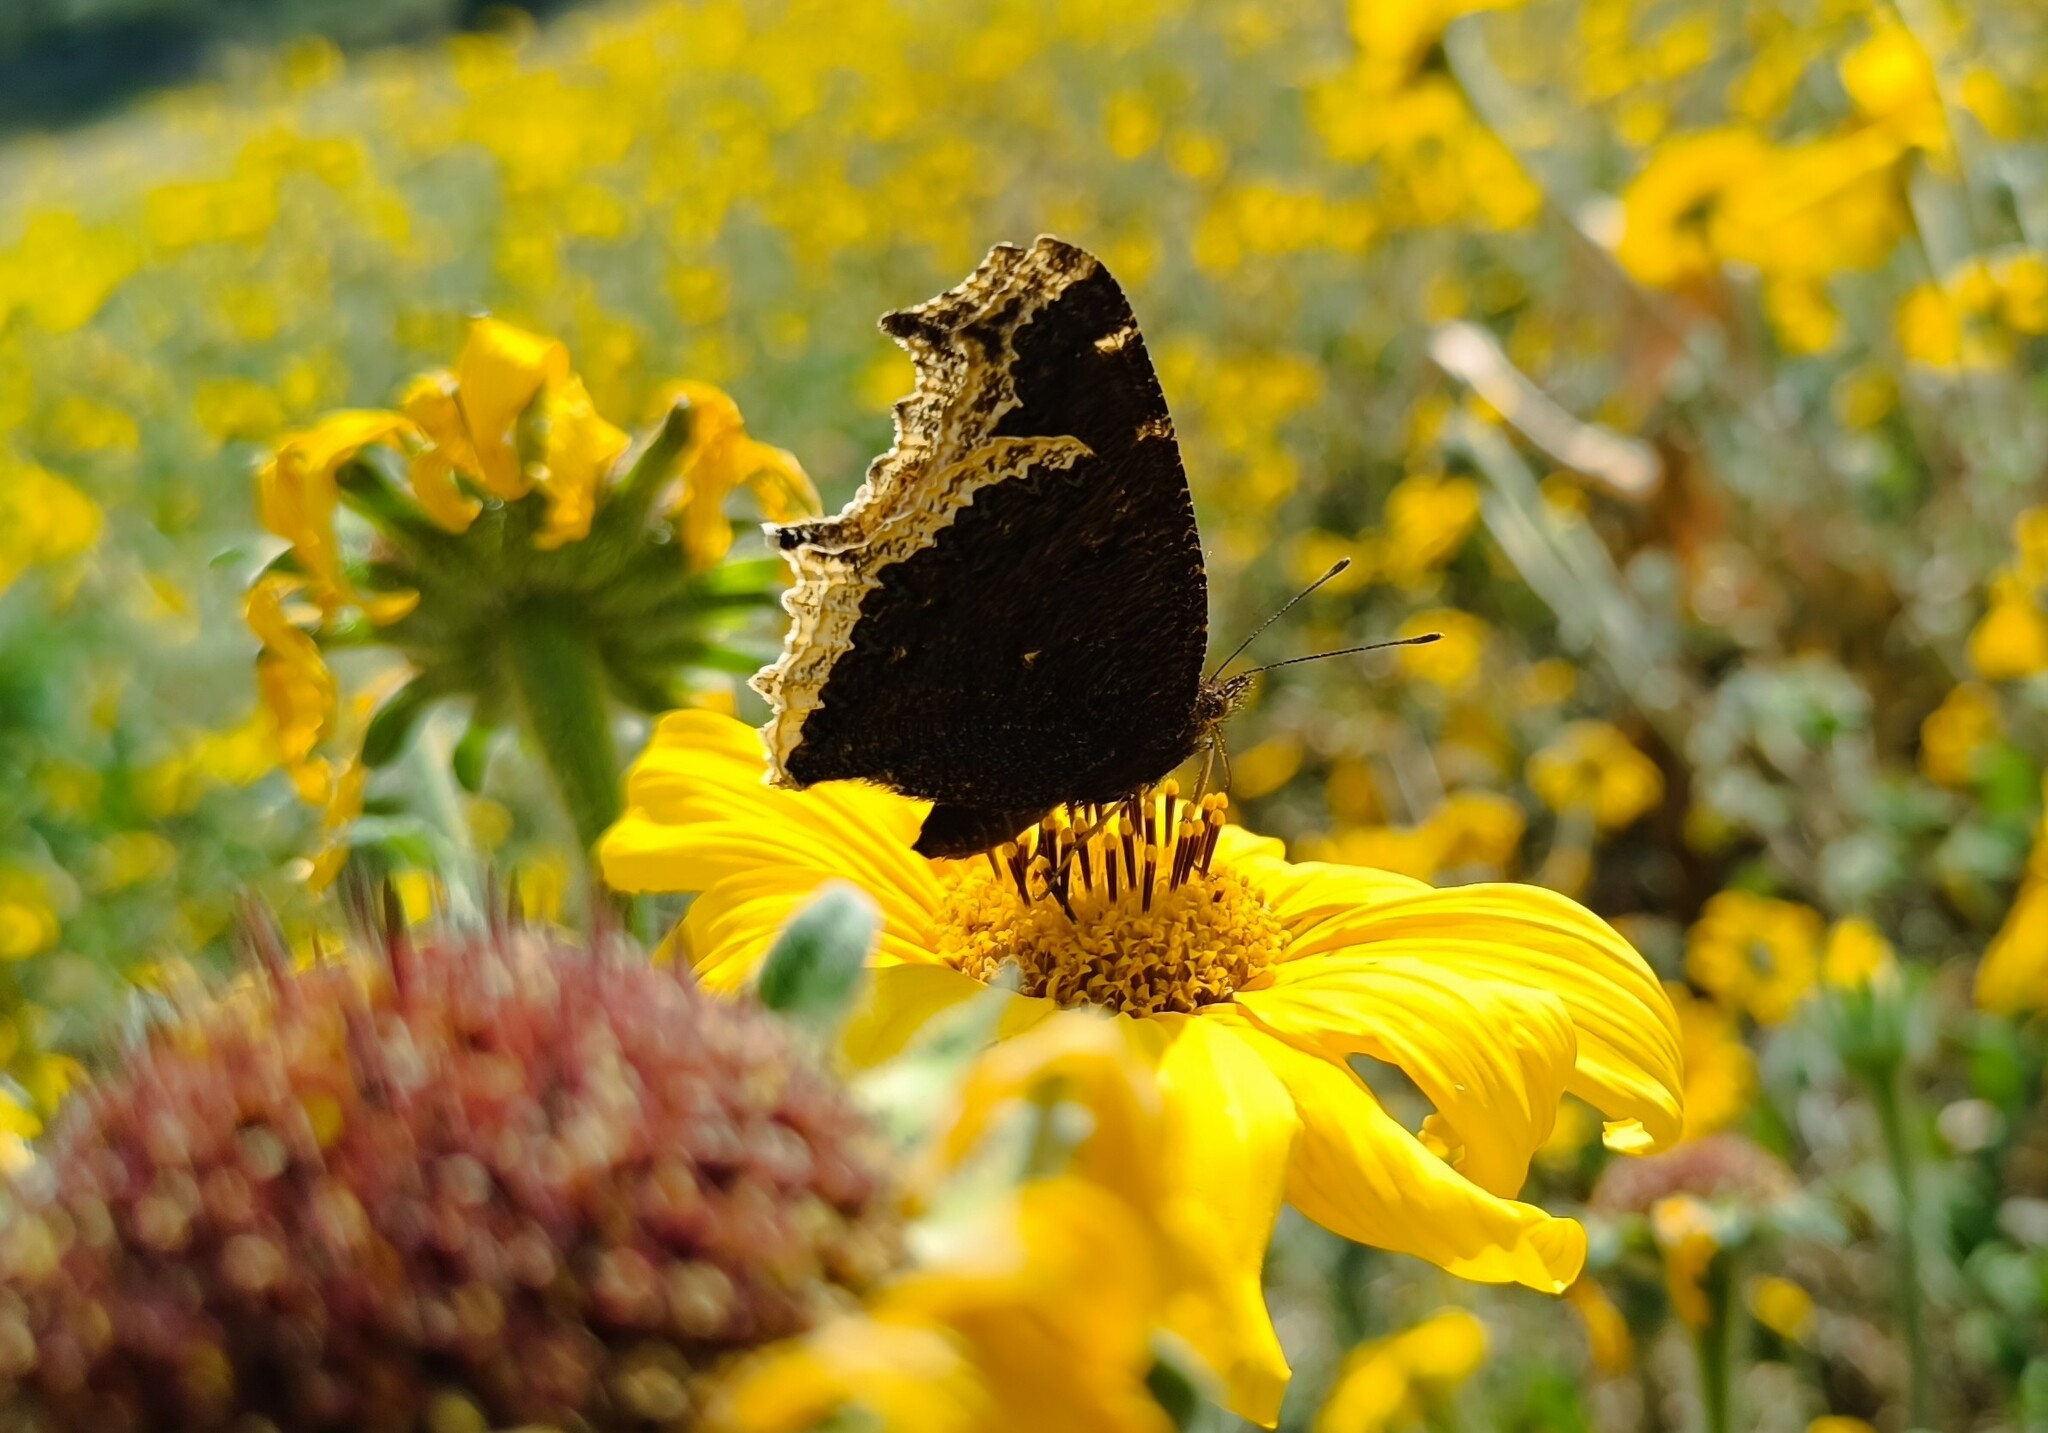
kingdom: Animalia
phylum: Arthropoda
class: Insecta
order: Lepidoptera
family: Nymphalidae
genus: Nymphalis
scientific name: Nymphalis antiopa
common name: Camberwell beauty
